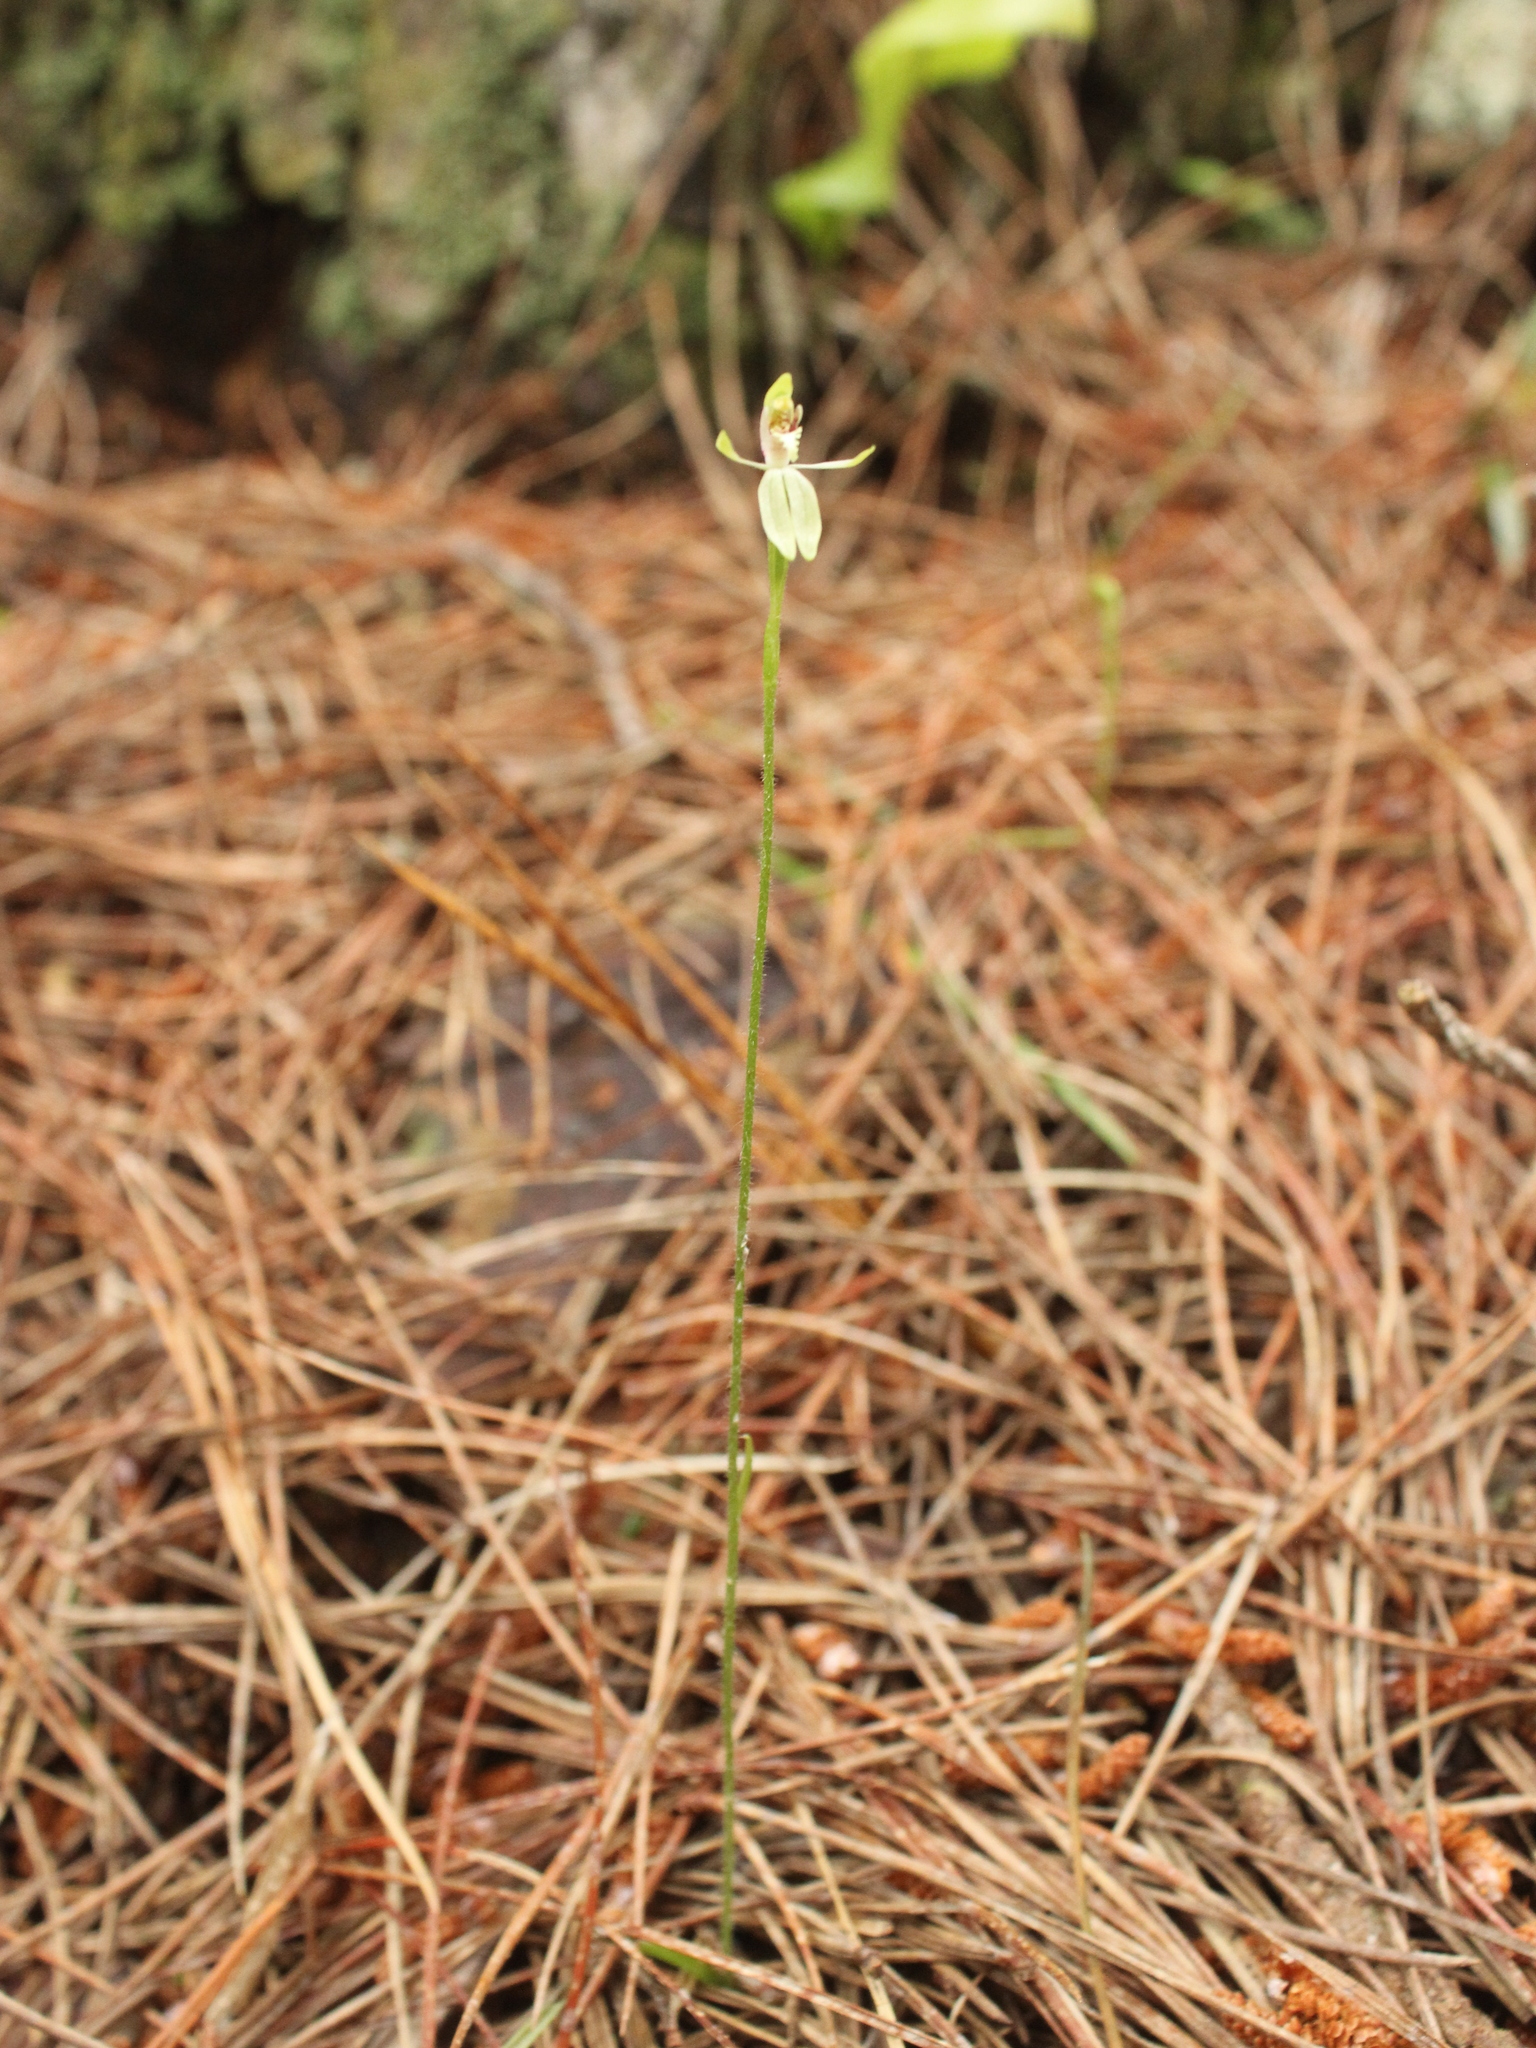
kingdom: Plantae
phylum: Tracheophyta
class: Liliopsida
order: Asparagales
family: Orchidaceae
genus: Caladenia
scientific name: Caladenia chlorostyla
